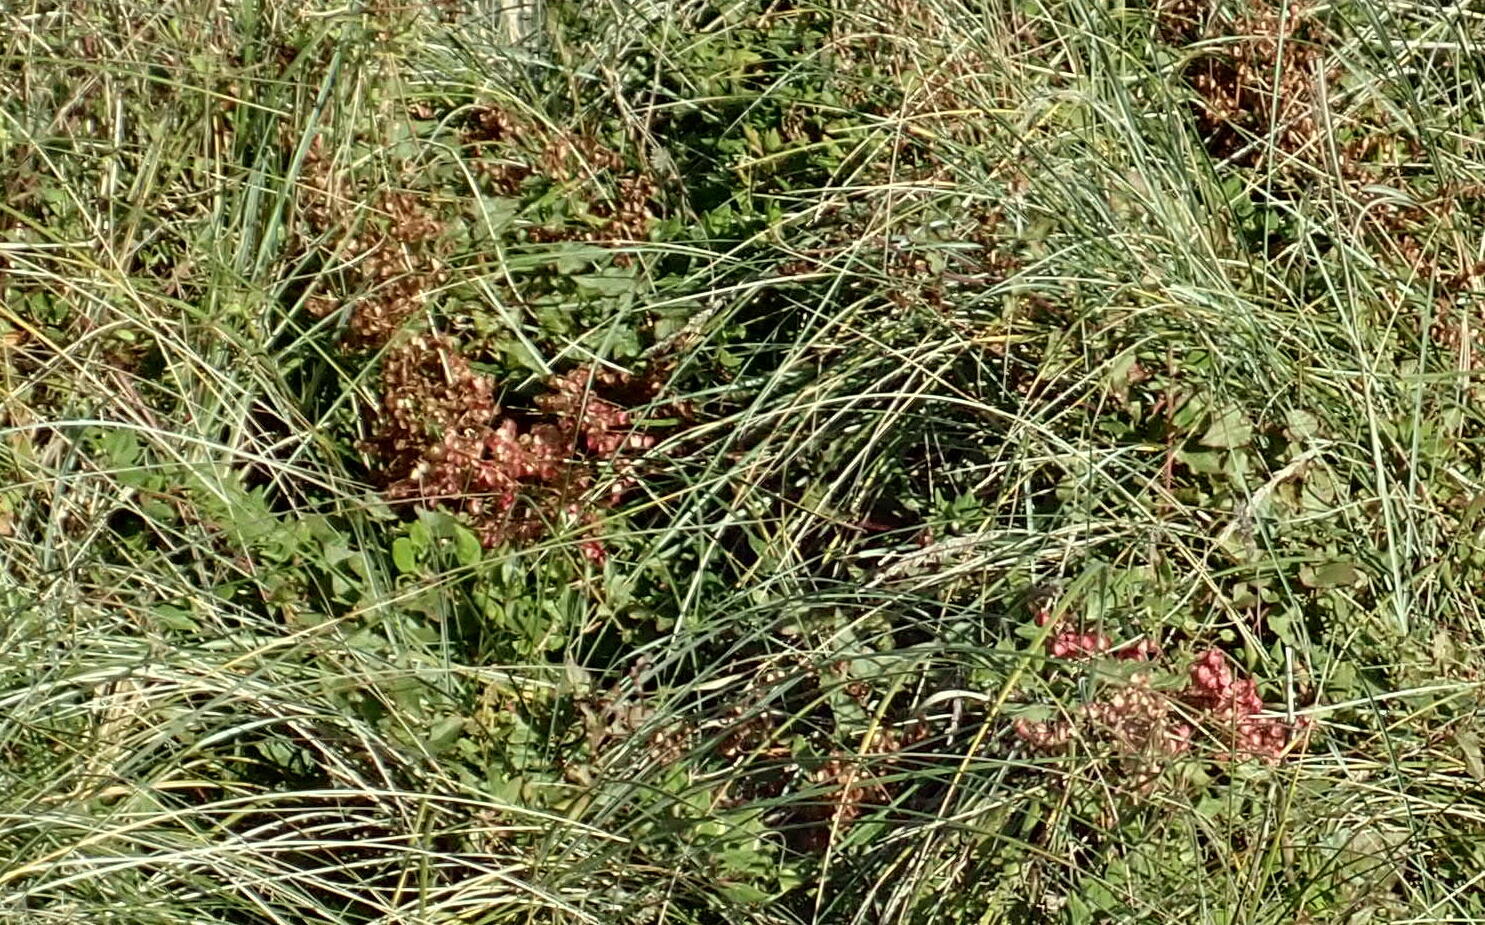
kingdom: Plantae
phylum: Tracheophyta
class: Magnoliopsida
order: Caryophyllales
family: Polygonaceae
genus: Rumex
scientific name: Rumex sagittatus
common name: Climbing dock
